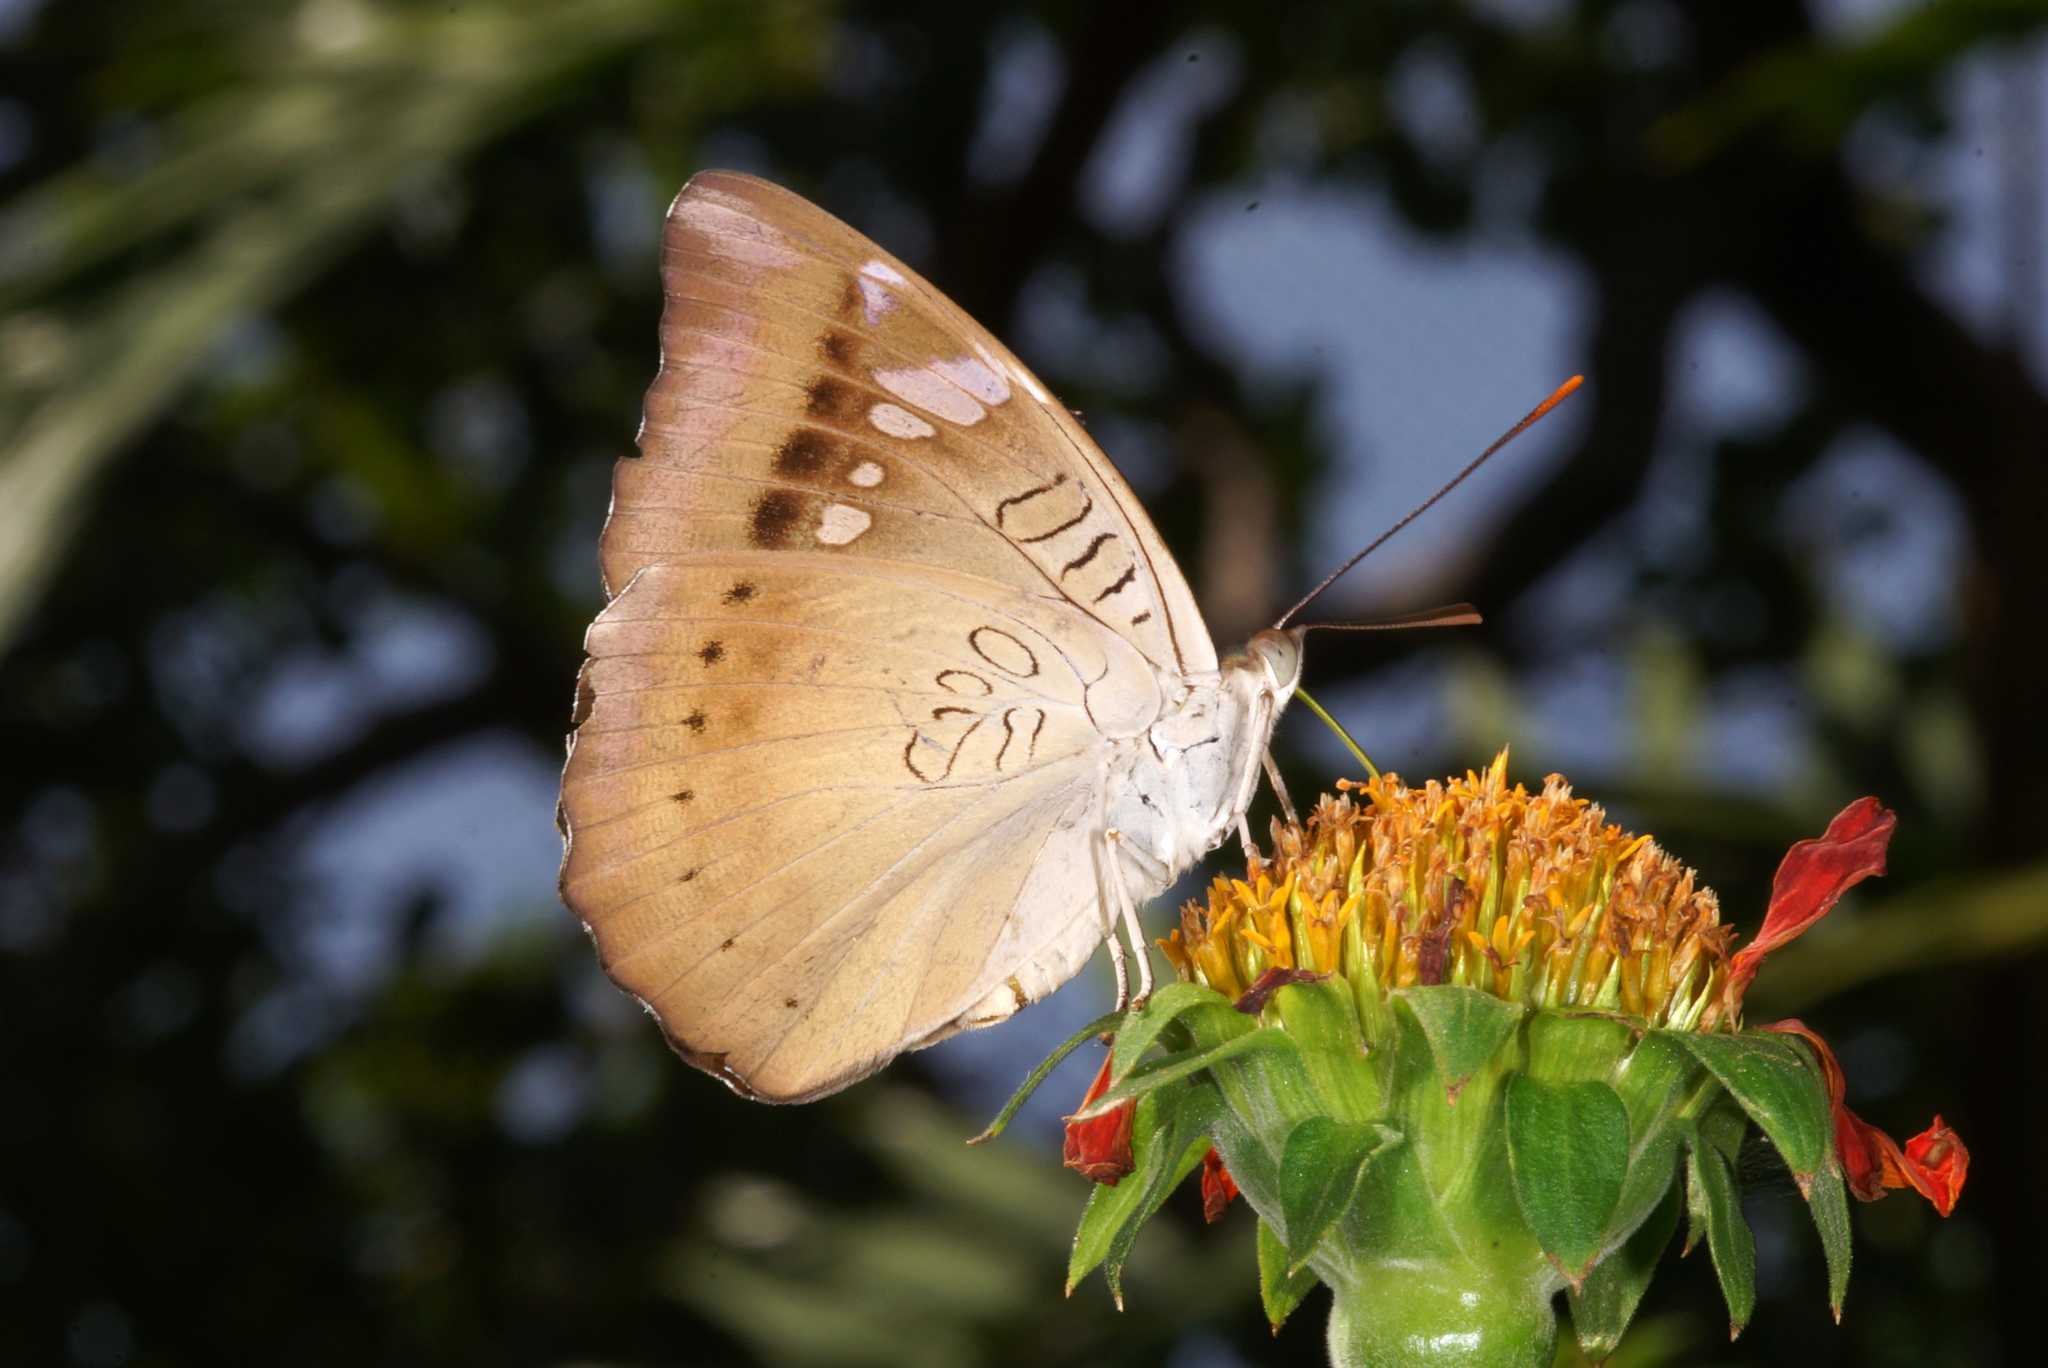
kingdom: Animalia
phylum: Arthropoda
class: Insecta
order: Lepidoptera
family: Nymphalidae
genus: Euthalia
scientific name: Euthalia aconthea
